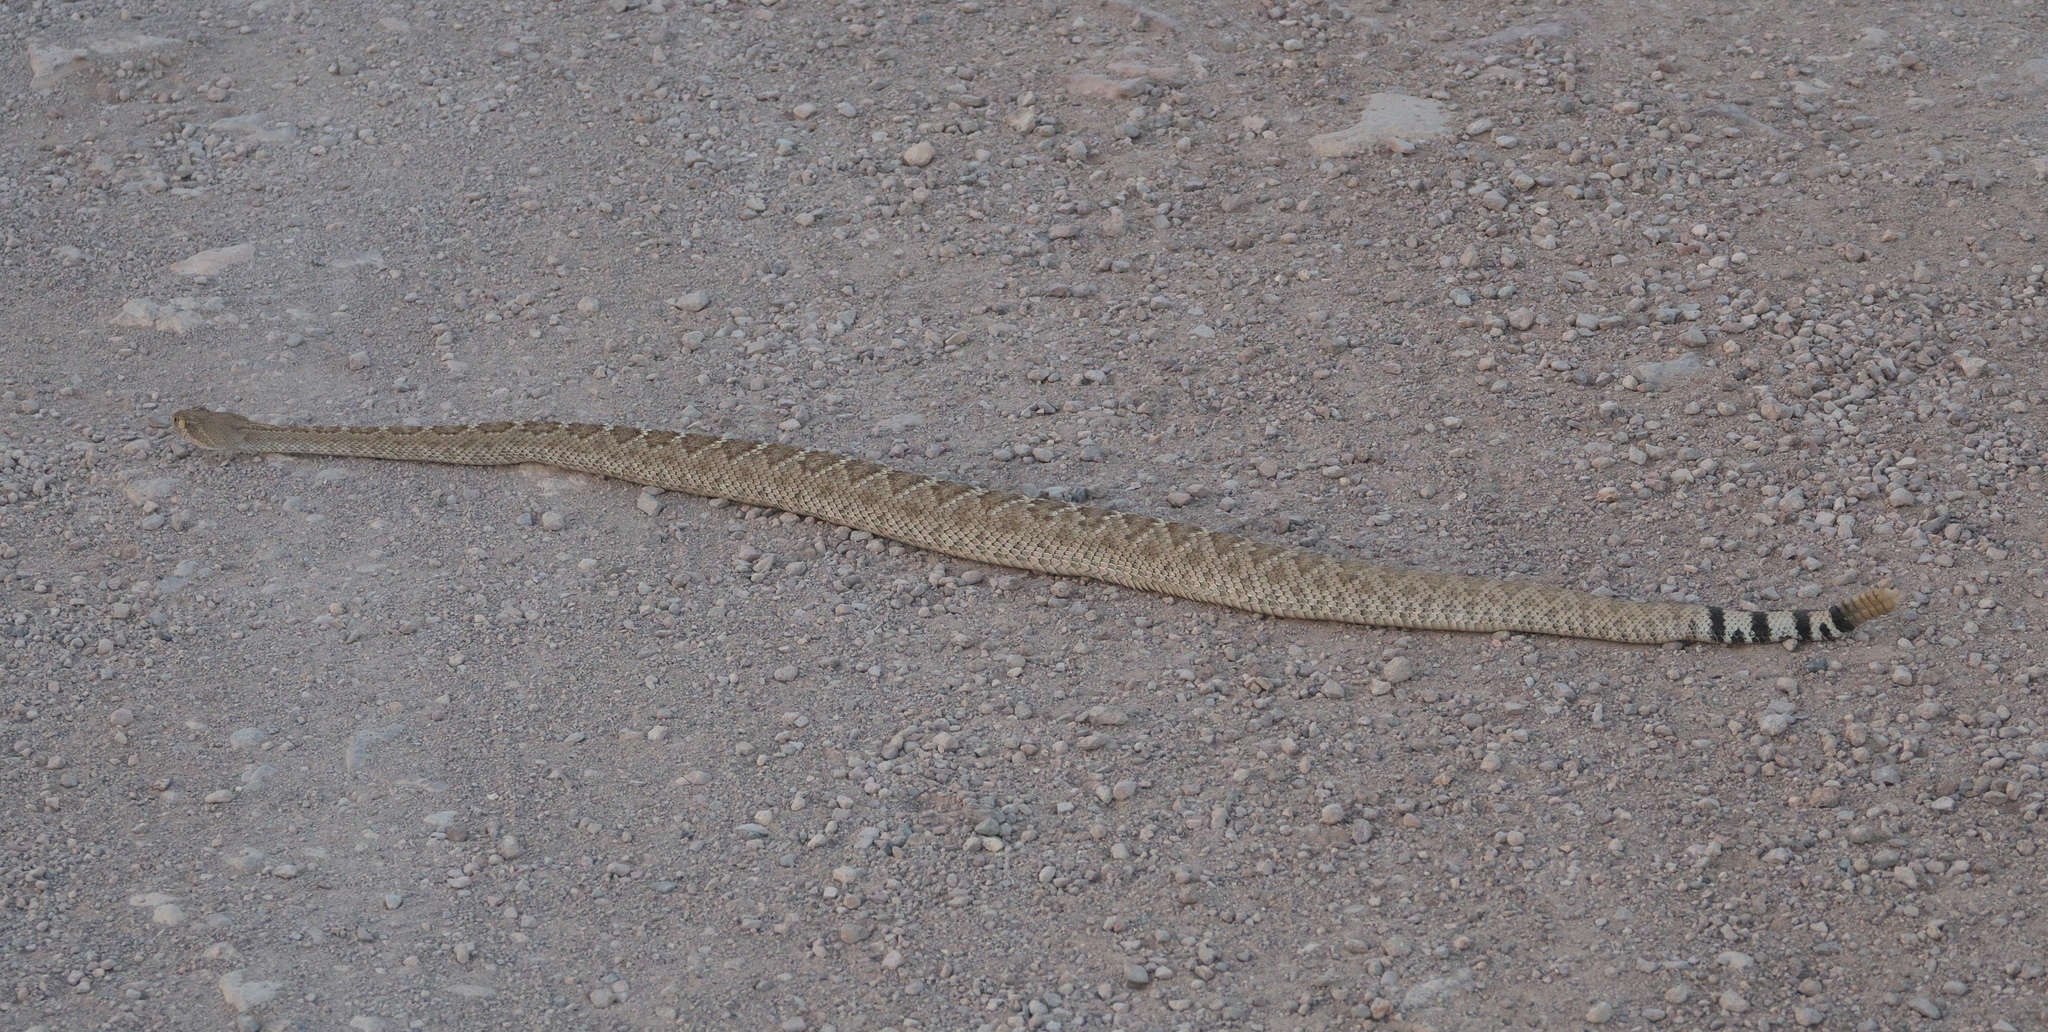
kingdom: Animalia
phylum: Chordata
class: Squamata
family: Viperidae
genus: Crotalus
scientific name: Crotalus atrox
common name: Western diamond-backed rattlesnake
